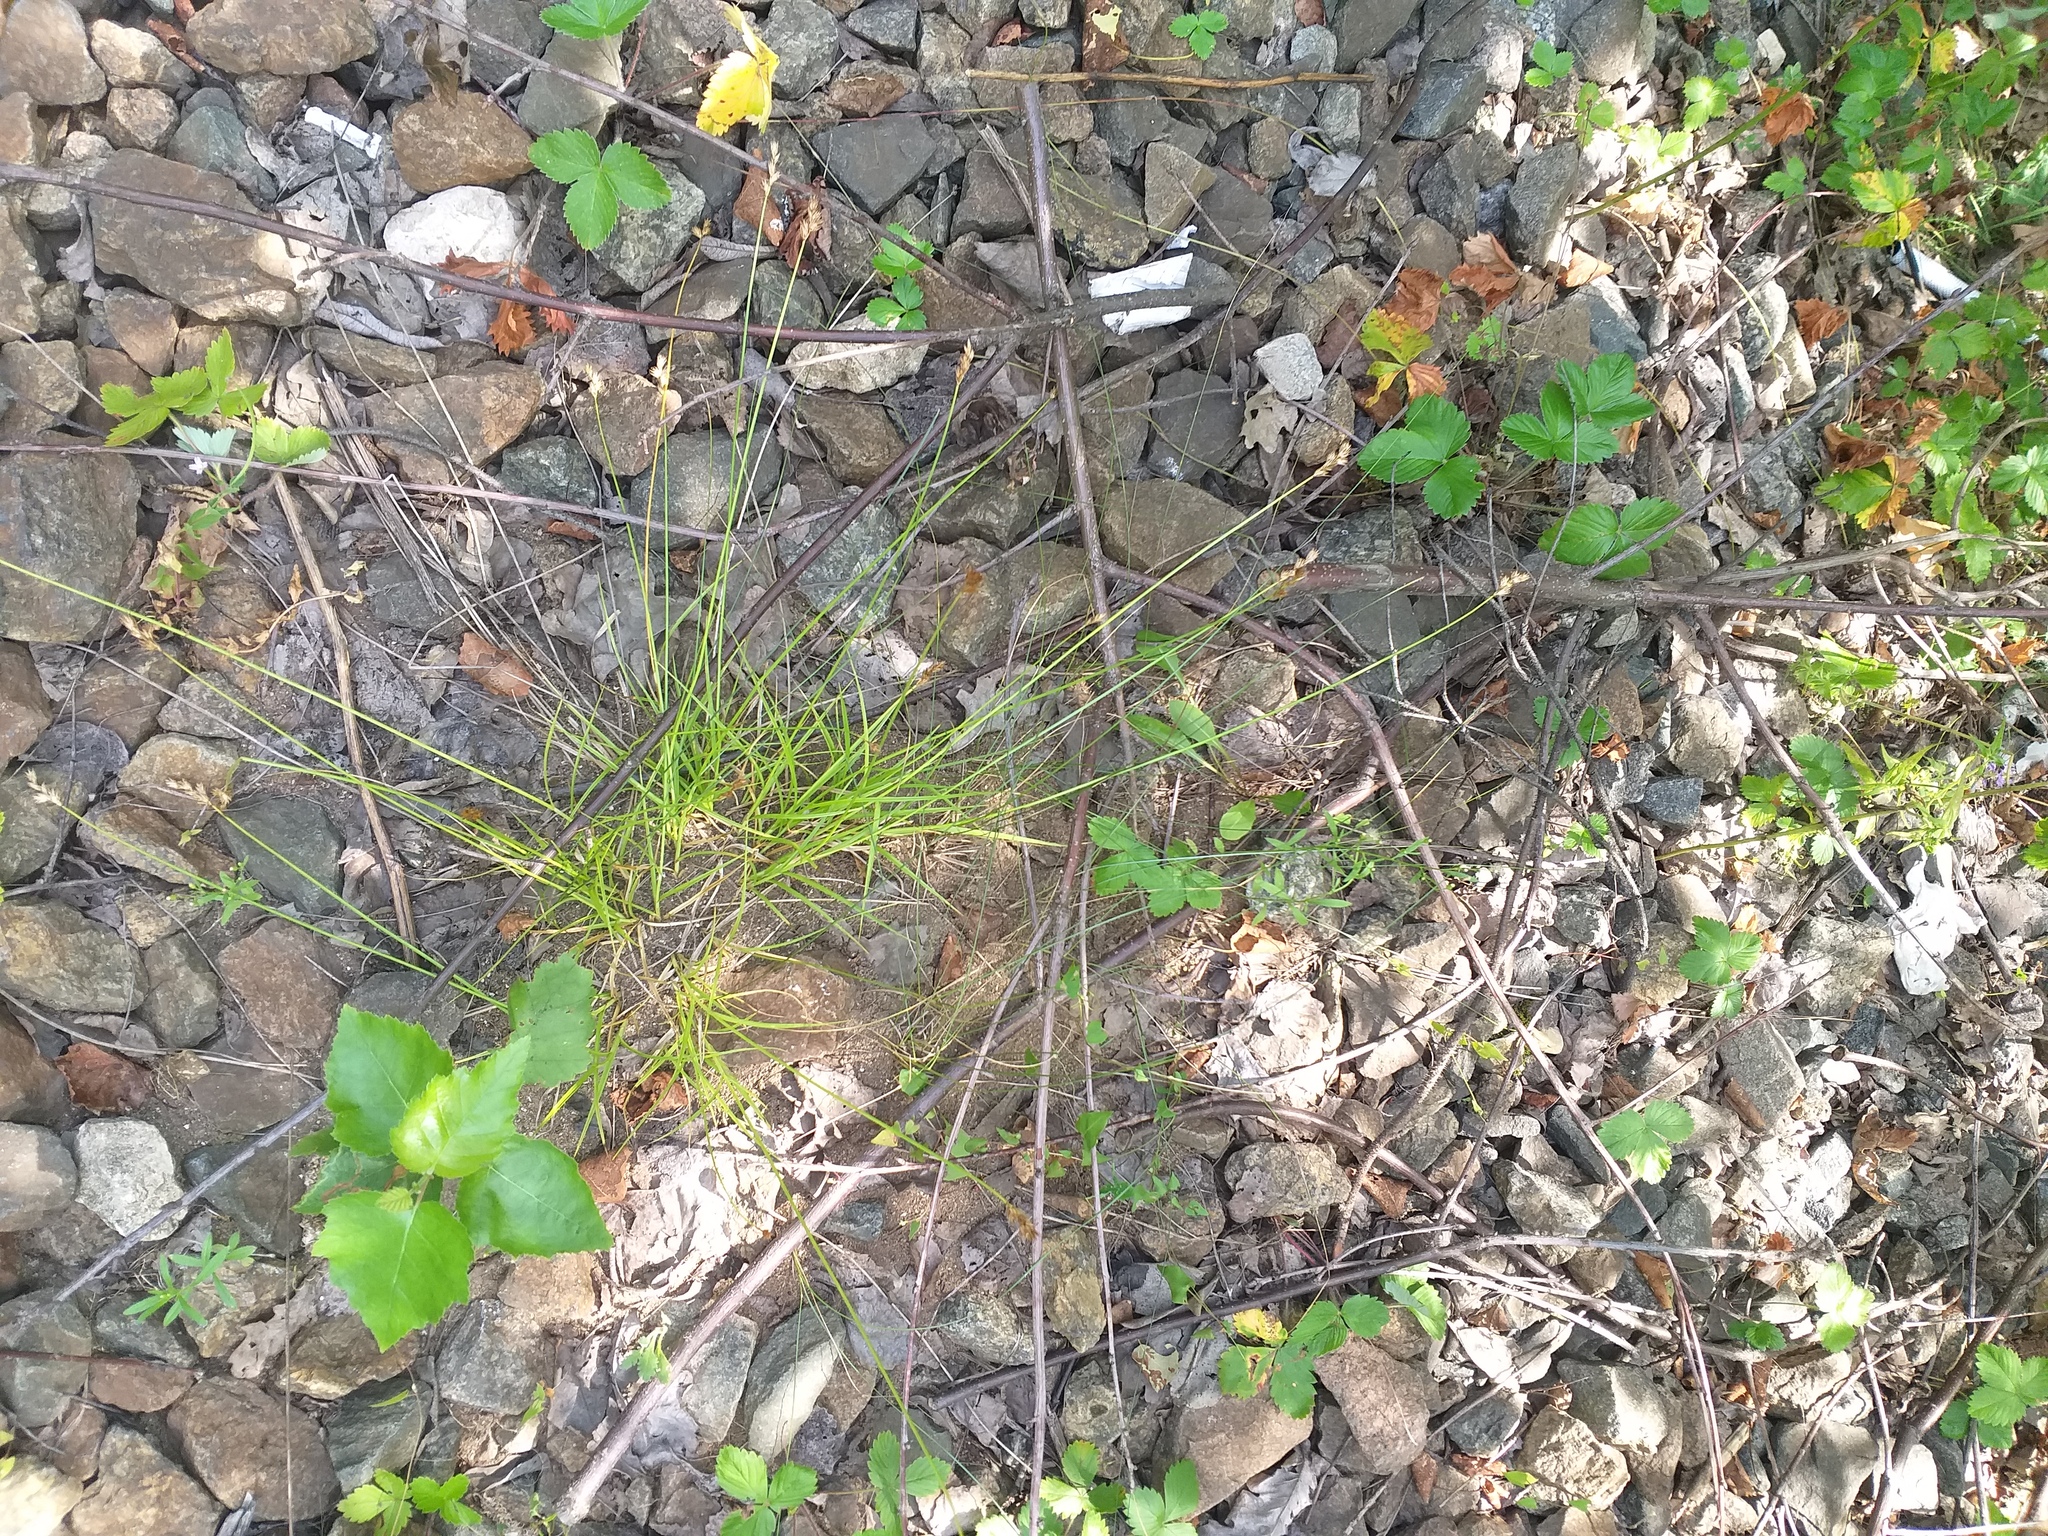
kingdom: Plantae
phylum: Tracheophyta
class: Liliopsida
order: Poales
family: Cyperaceae
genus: Carex
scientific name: Carex leporina
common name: Oval sedge
